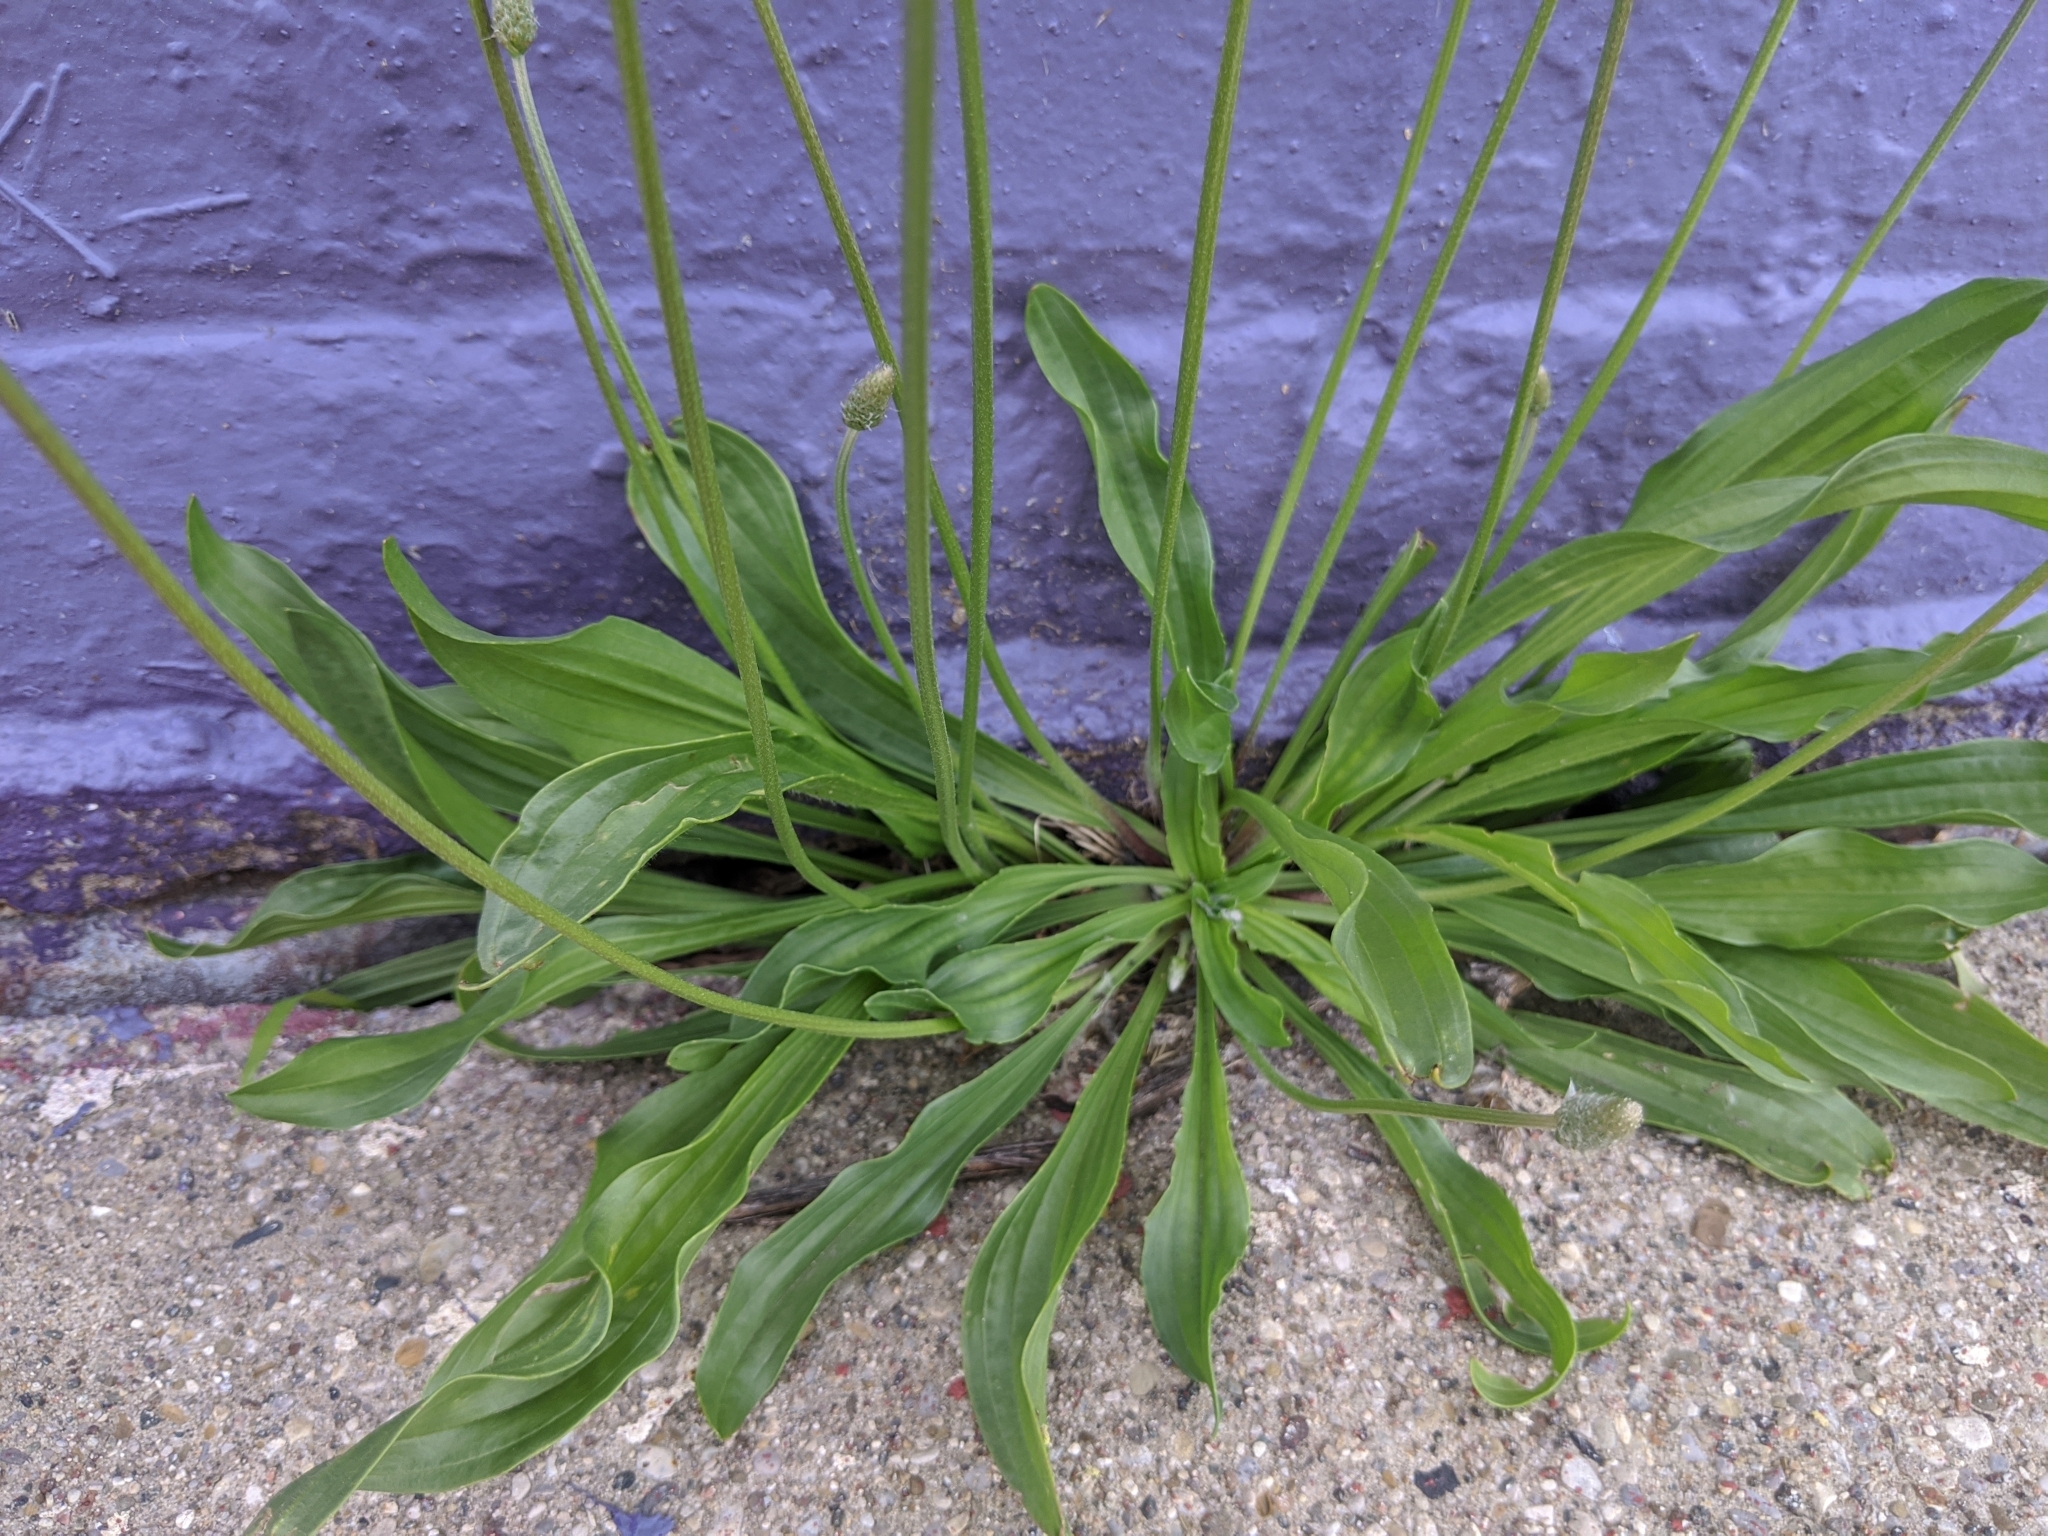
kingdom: Plantae
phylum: Tracheophyta
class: Magnoliopsida
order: Lamiales
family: Plantaginaceae
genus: Plantago
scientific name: Plantago lanceolata
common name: Ribwort plantain
